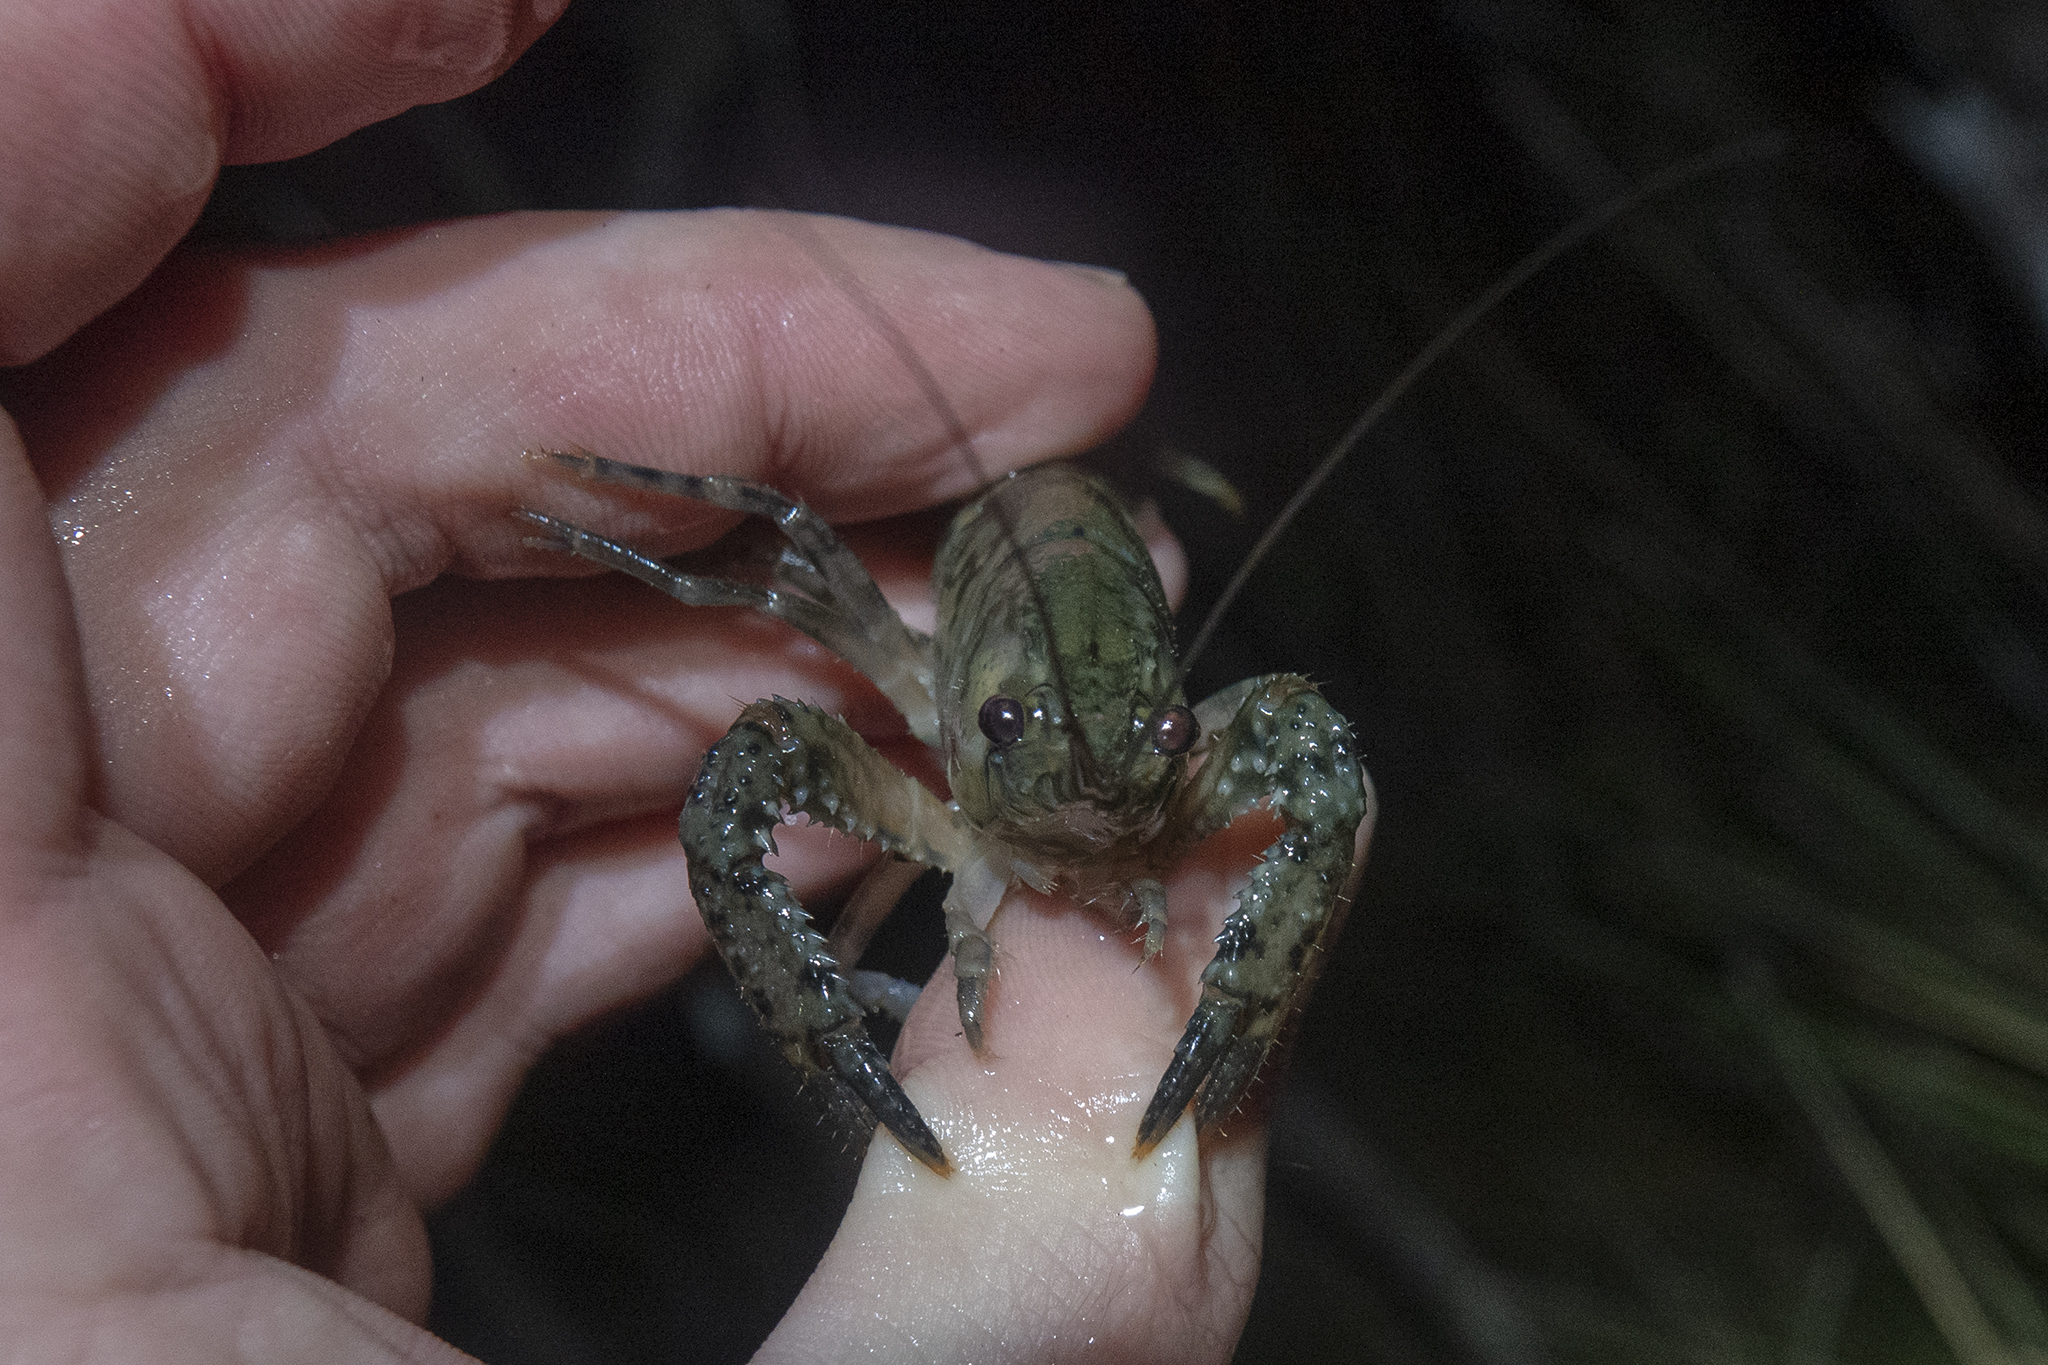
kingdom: Animalia
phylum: Arthropoda
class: Malacostraca
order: Decapoda
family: Parastacidae
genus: Paranephrops
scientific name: Paranephrops planifrons
